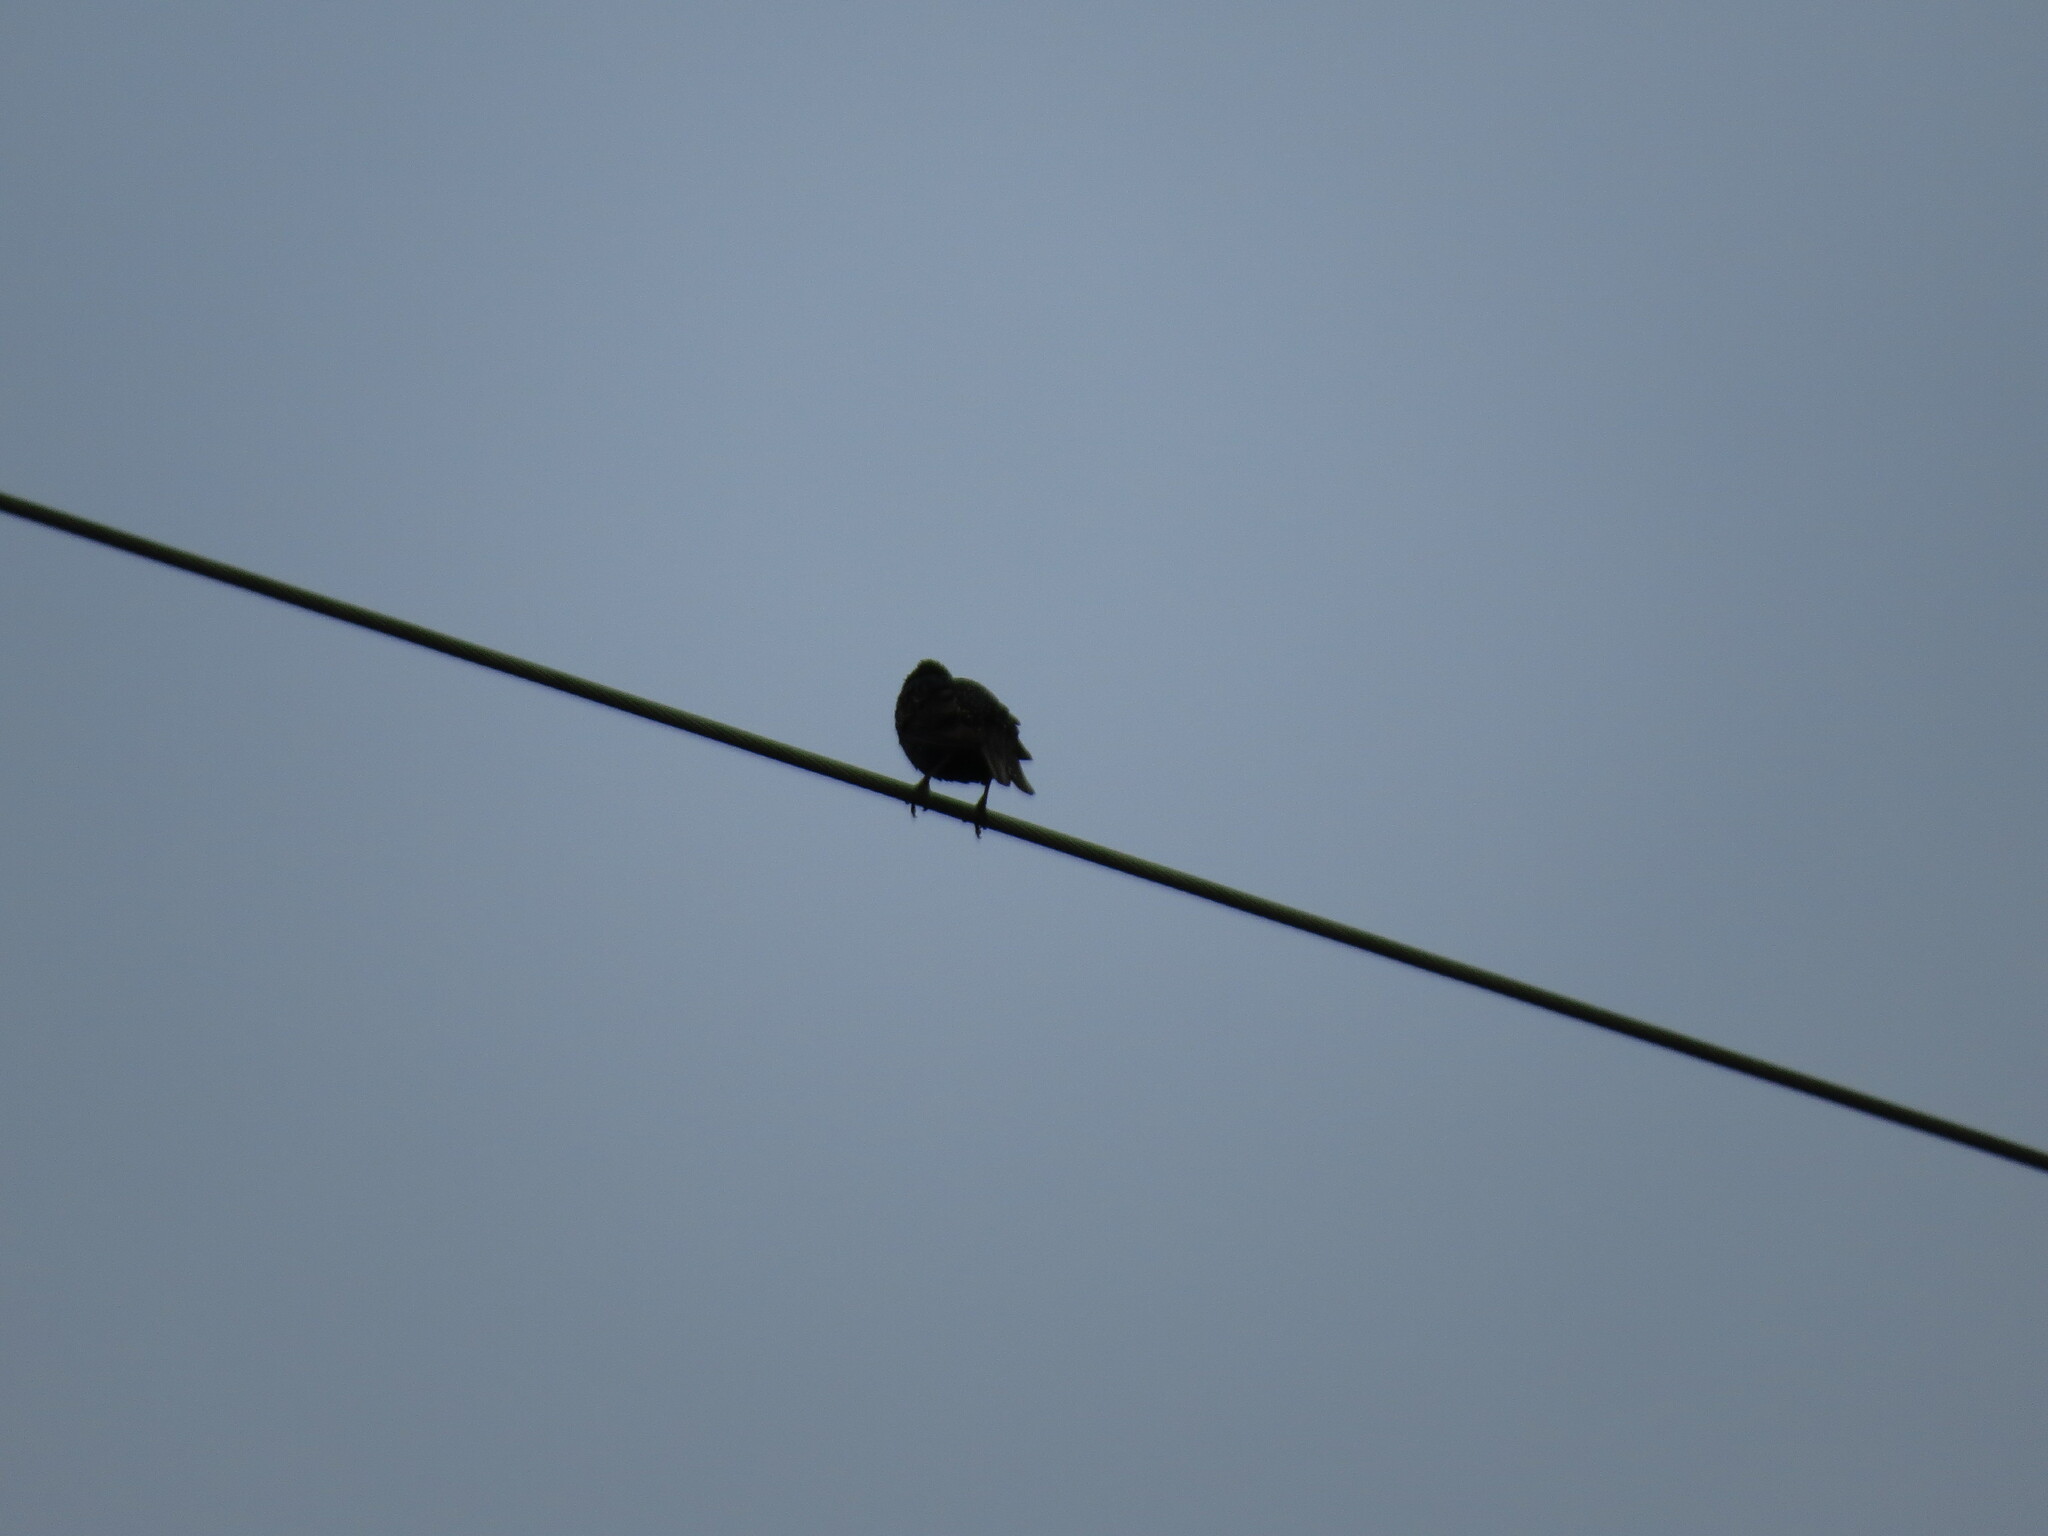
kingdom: Animalia
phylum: Chordata
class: Aves
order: Passeriformes
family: Sturnidae
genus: Sturnus
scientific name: Sturnus vulgaris
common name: Common starling
